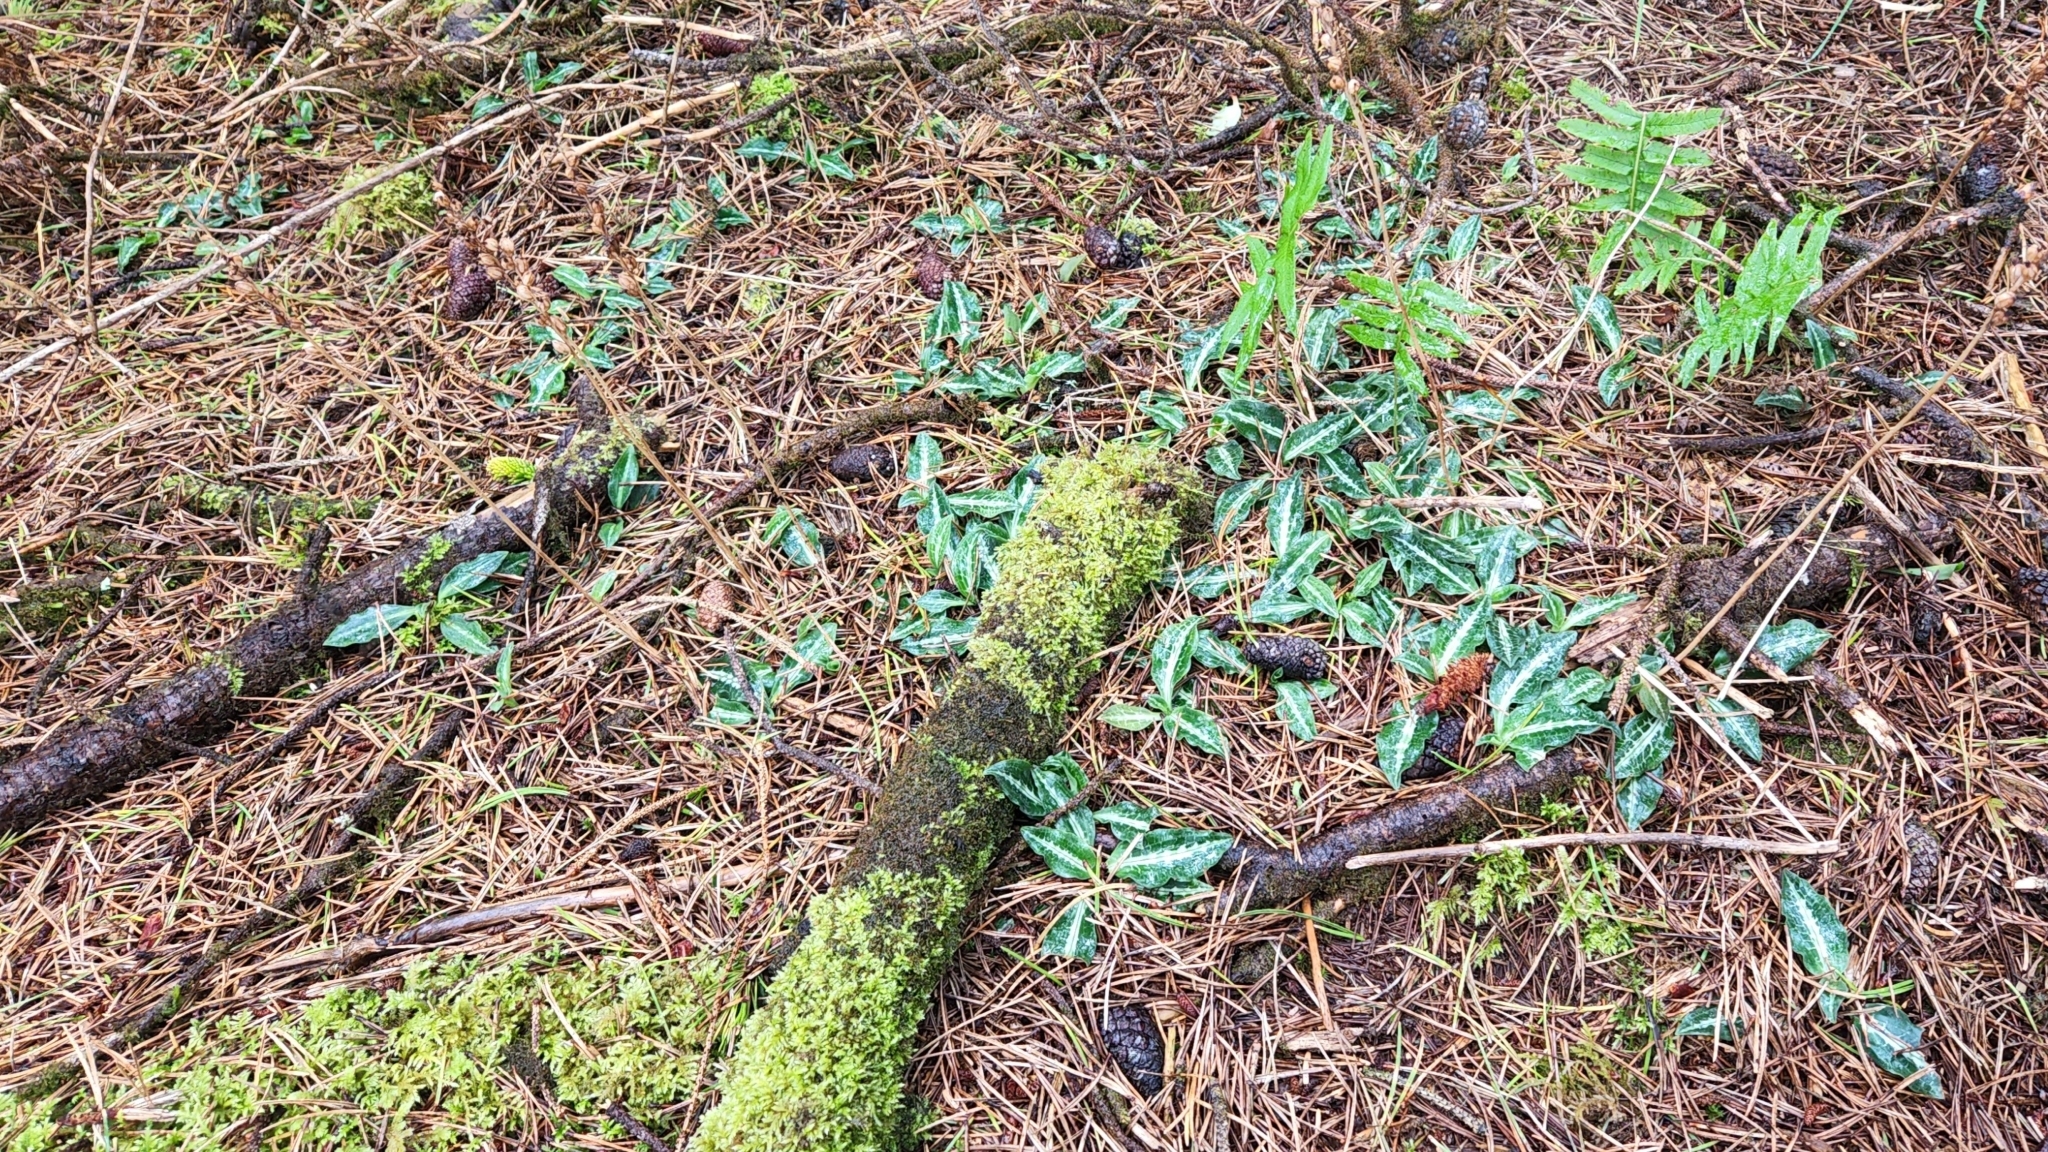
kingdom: Plantae
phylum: Tracheophyta
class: Liliopsida
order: Asparagales
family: Orchidaceae
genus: Goodyera
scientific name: Goodyera oblongifolia
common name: Giant rattlesnake-plantain
